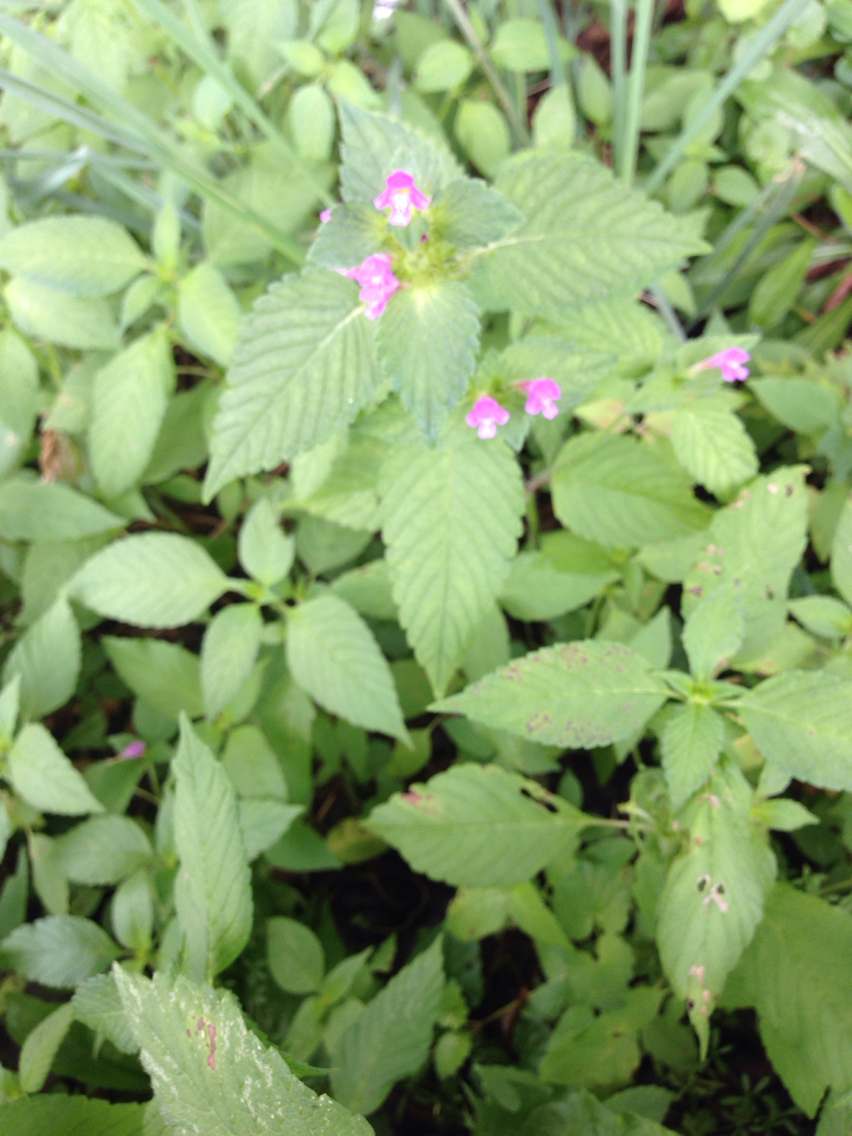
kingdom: Plantae
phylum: Tracheophyta
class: Magnoliopsida
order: Lamiales
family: Lamiaceae
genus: Galeopsis
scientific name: Galeopsis tetrahit
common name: Common hemp-nettle
